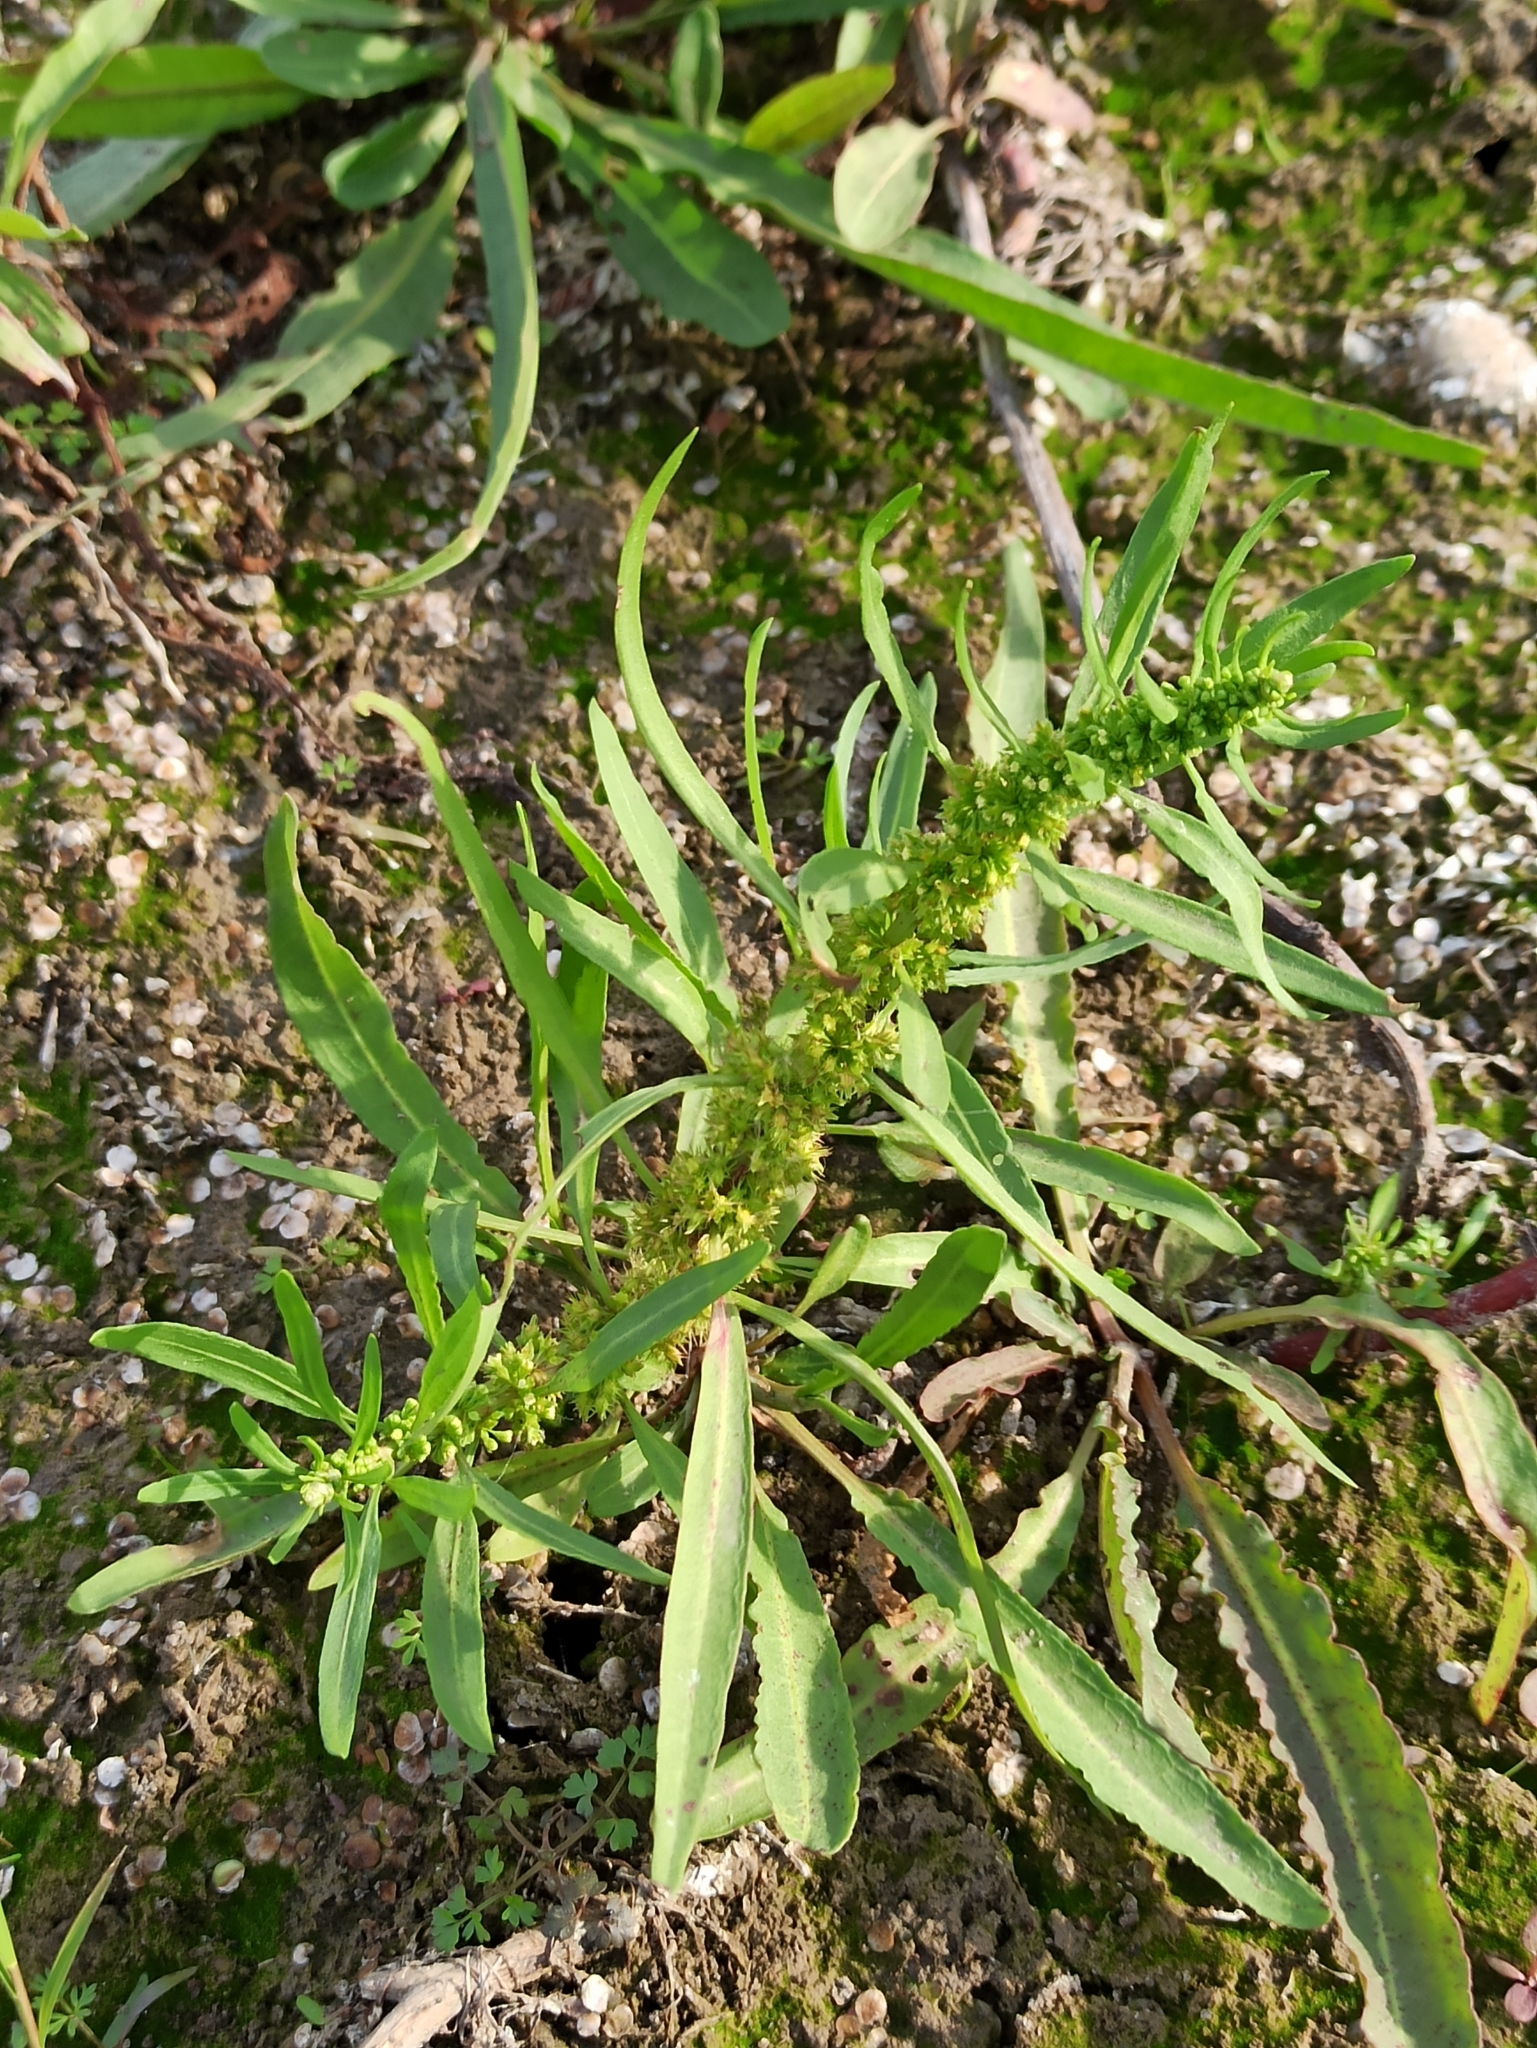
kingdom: Plantae
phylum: Tracheophyta
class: Magnoliopsida
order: Caryophyllales
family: Polygonaceae
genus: Rumex
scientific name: Rumex maritimus
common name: Golden dock
